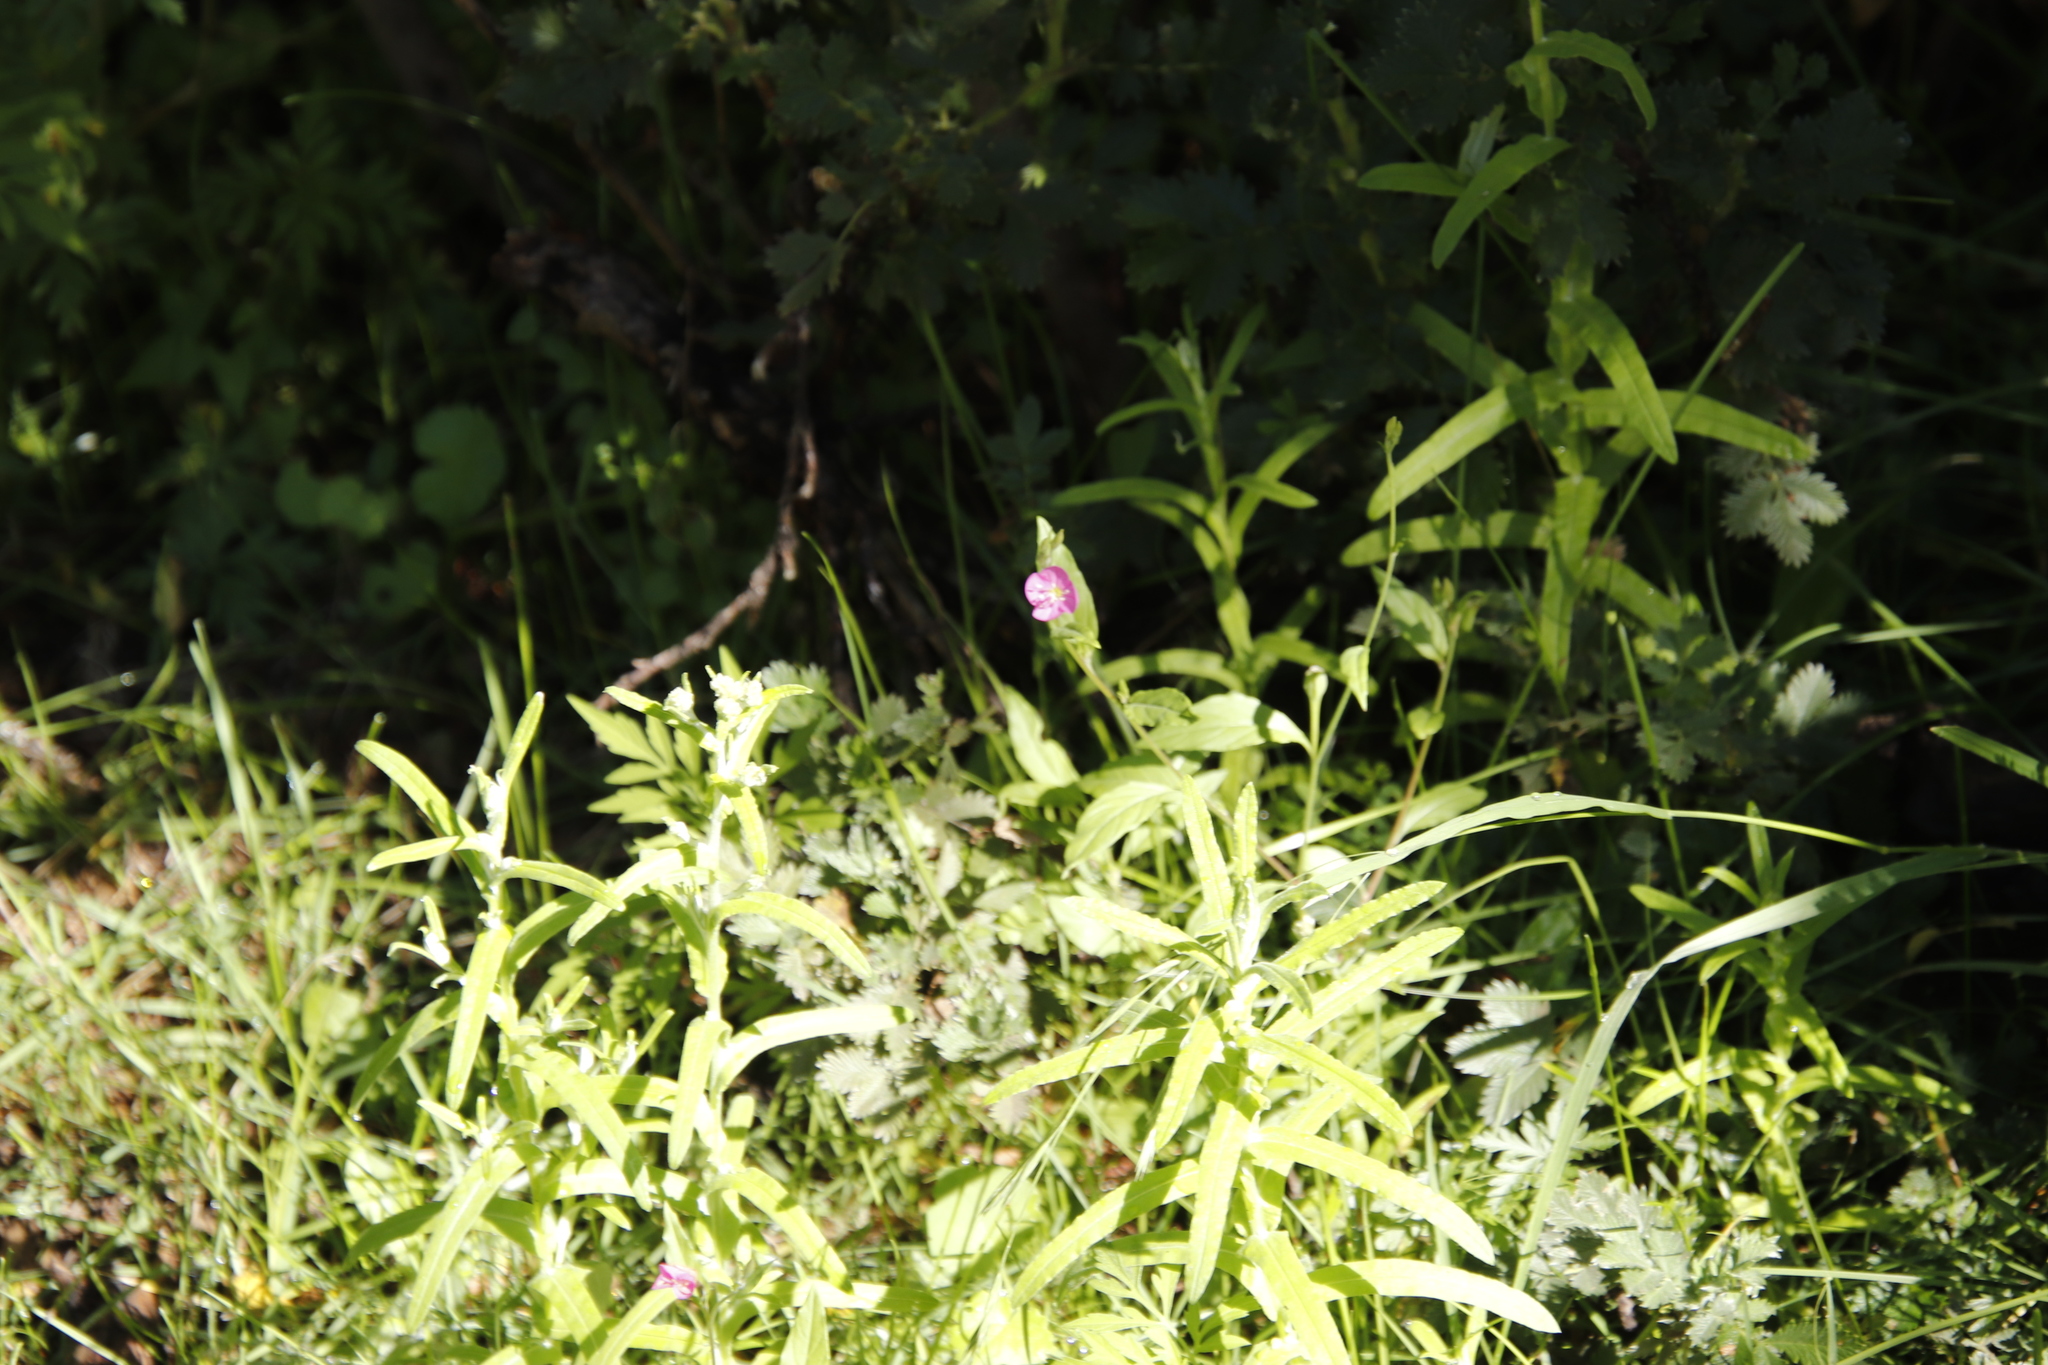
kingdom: Plantae
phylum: Tracheophyta
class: Magnoliopsida
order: Myrtales
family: Onagraceae
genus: Oenothera
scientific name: Oenothera rosea
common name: Rosy evening-primrose
